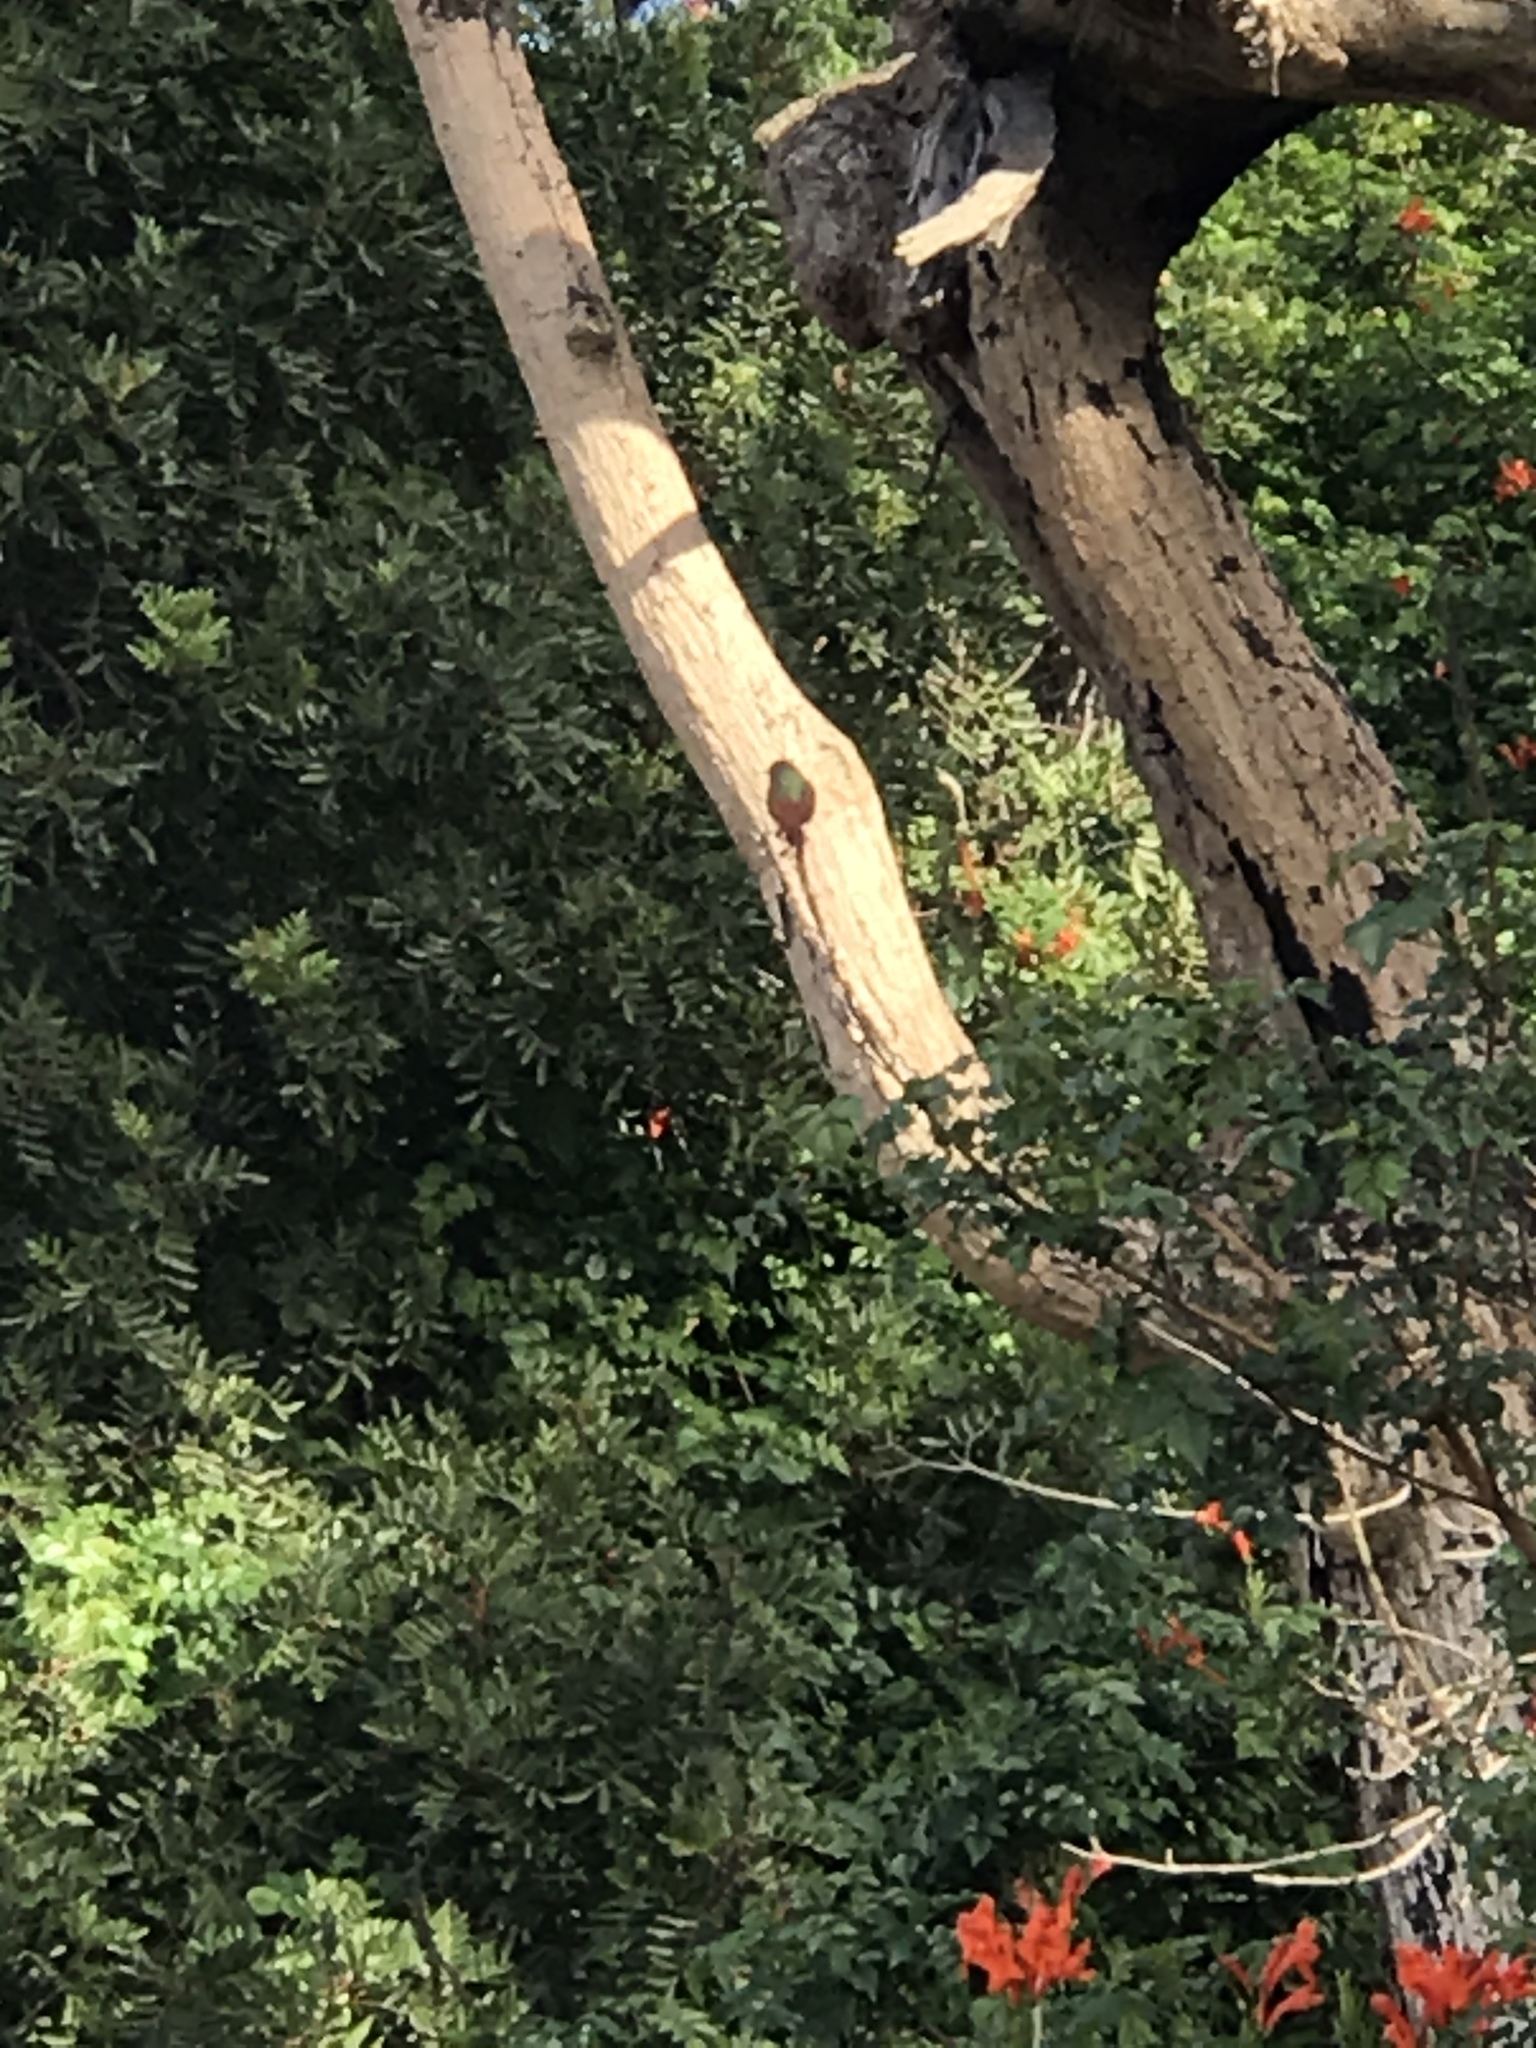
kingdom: Animalia
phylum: Chordata
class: Aves
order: Apodiformes
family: Trochilidae
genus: Selasphorus
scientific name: Selasphorus sasin
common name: Allen's hummingbird
